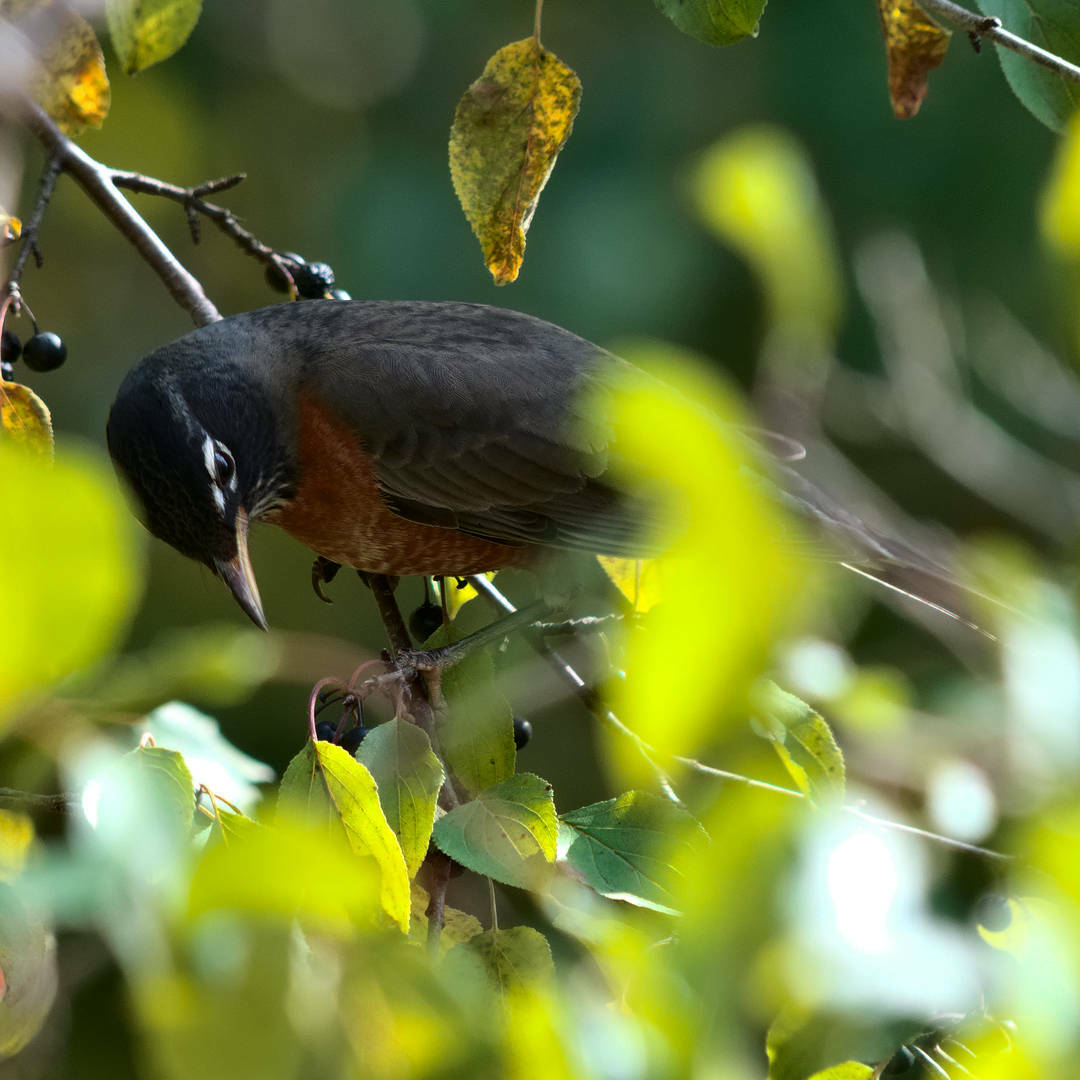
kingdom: Animalia
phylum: Chordata
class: Aves
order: Passeriformes
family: Turdidae
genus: Turdus
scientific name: Turdus migratorius
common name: American robin
